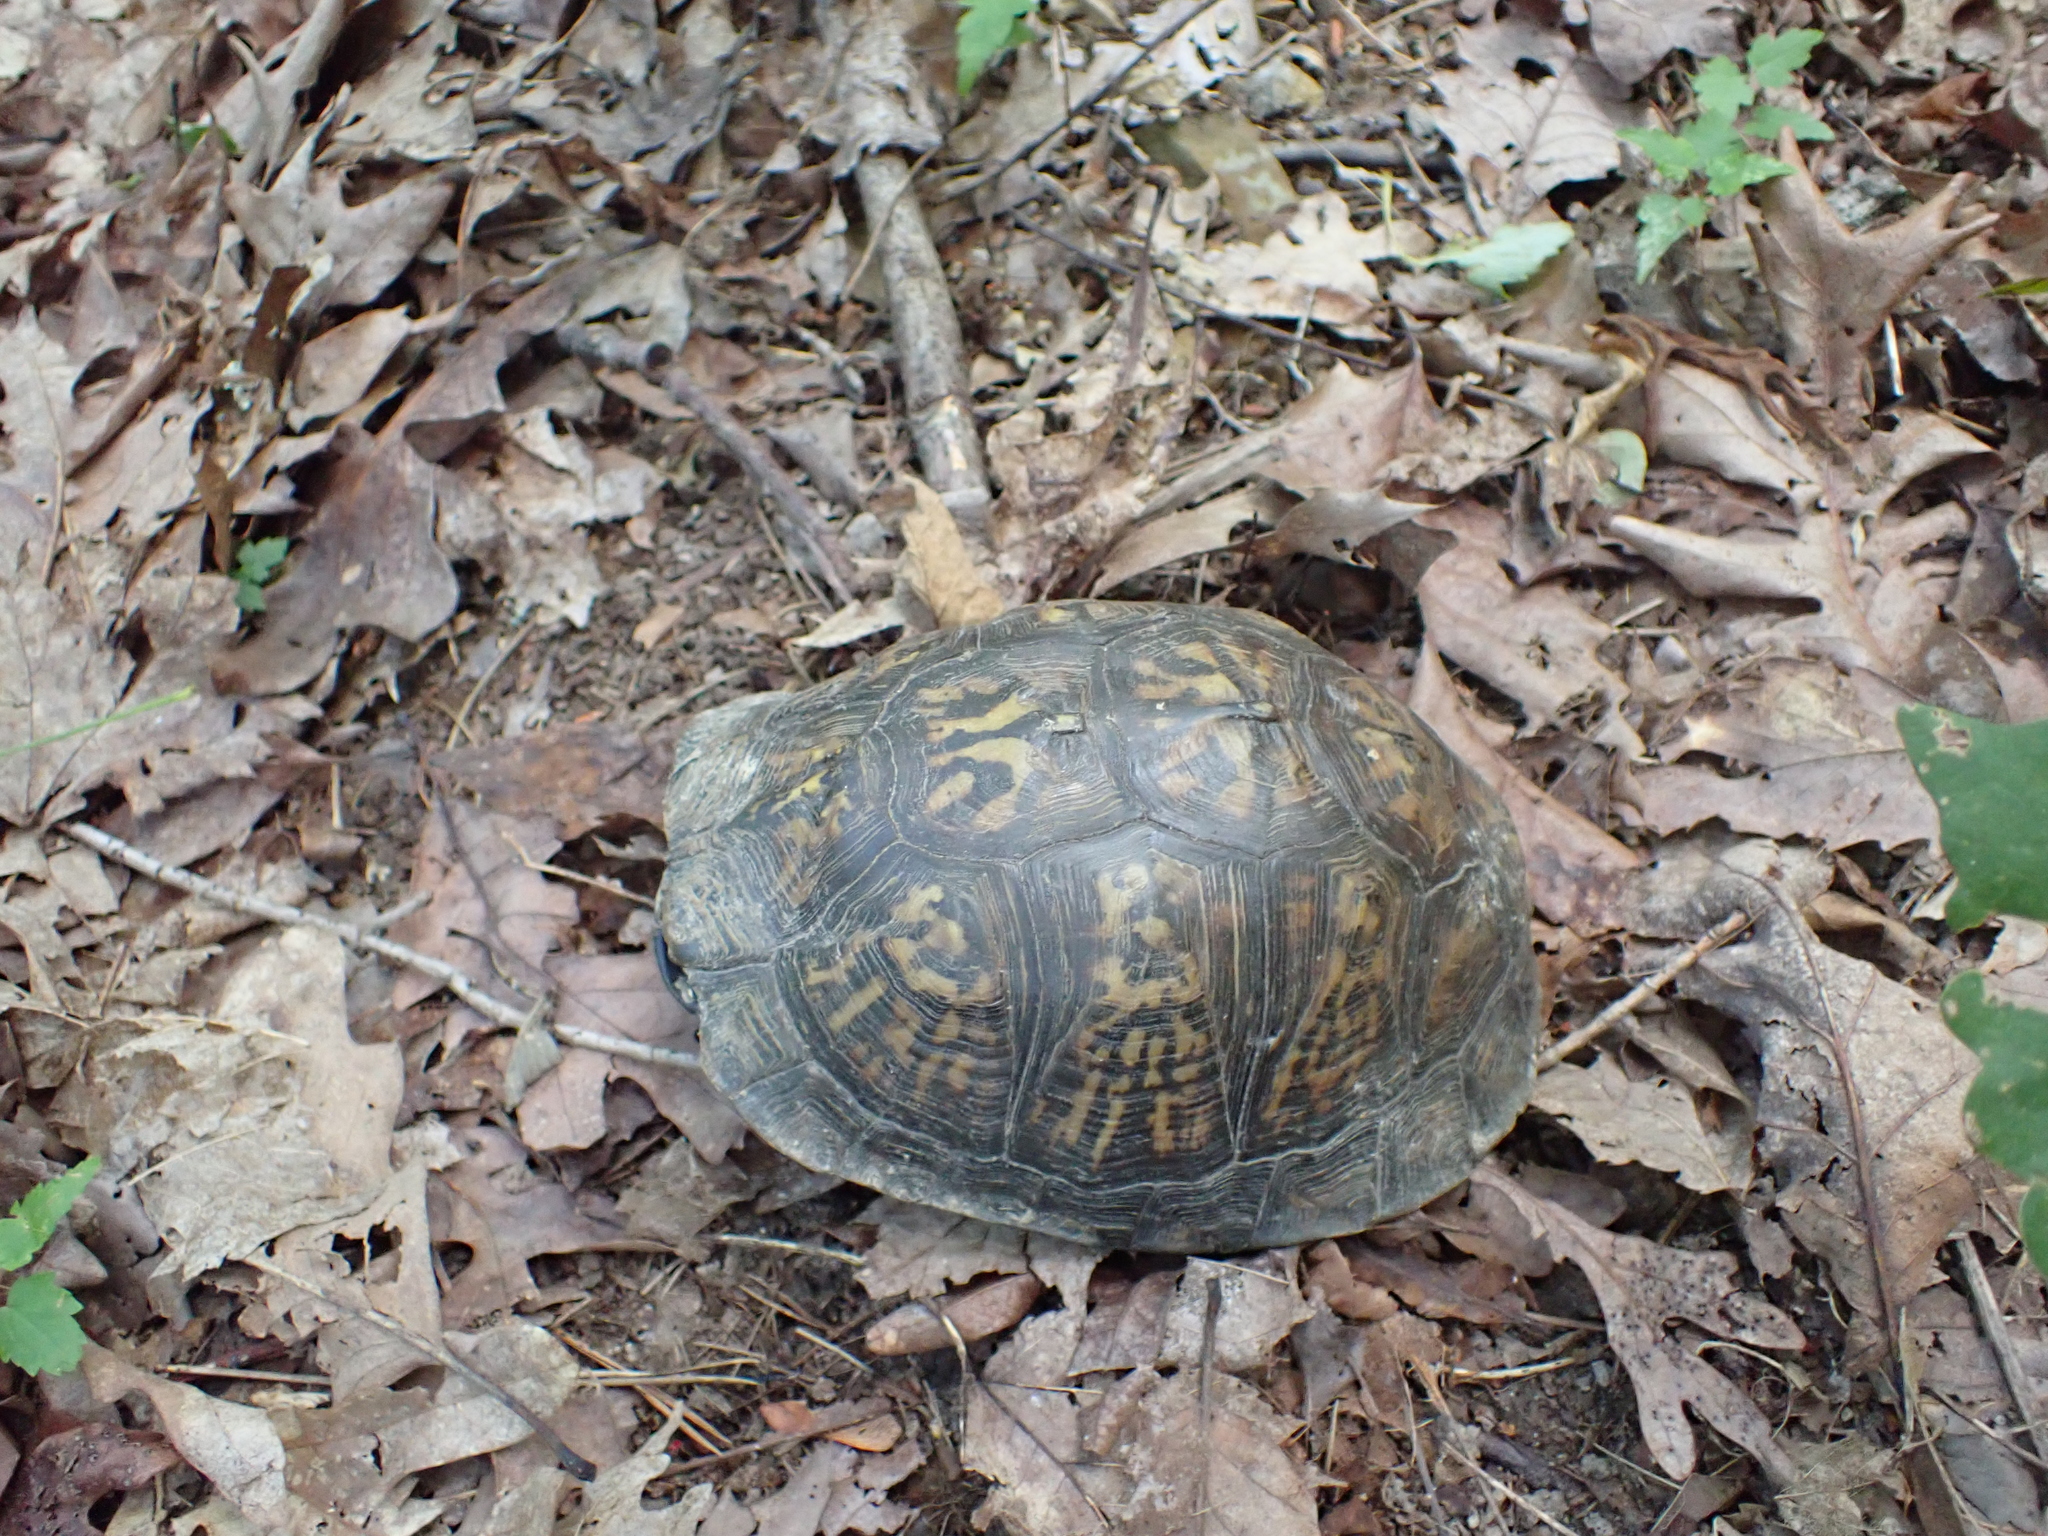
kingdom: Animalia
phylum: Chordata
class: Testudines
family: Emydidae
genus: Terrapene
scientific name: Terrapene carolina
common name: Common box turtle
